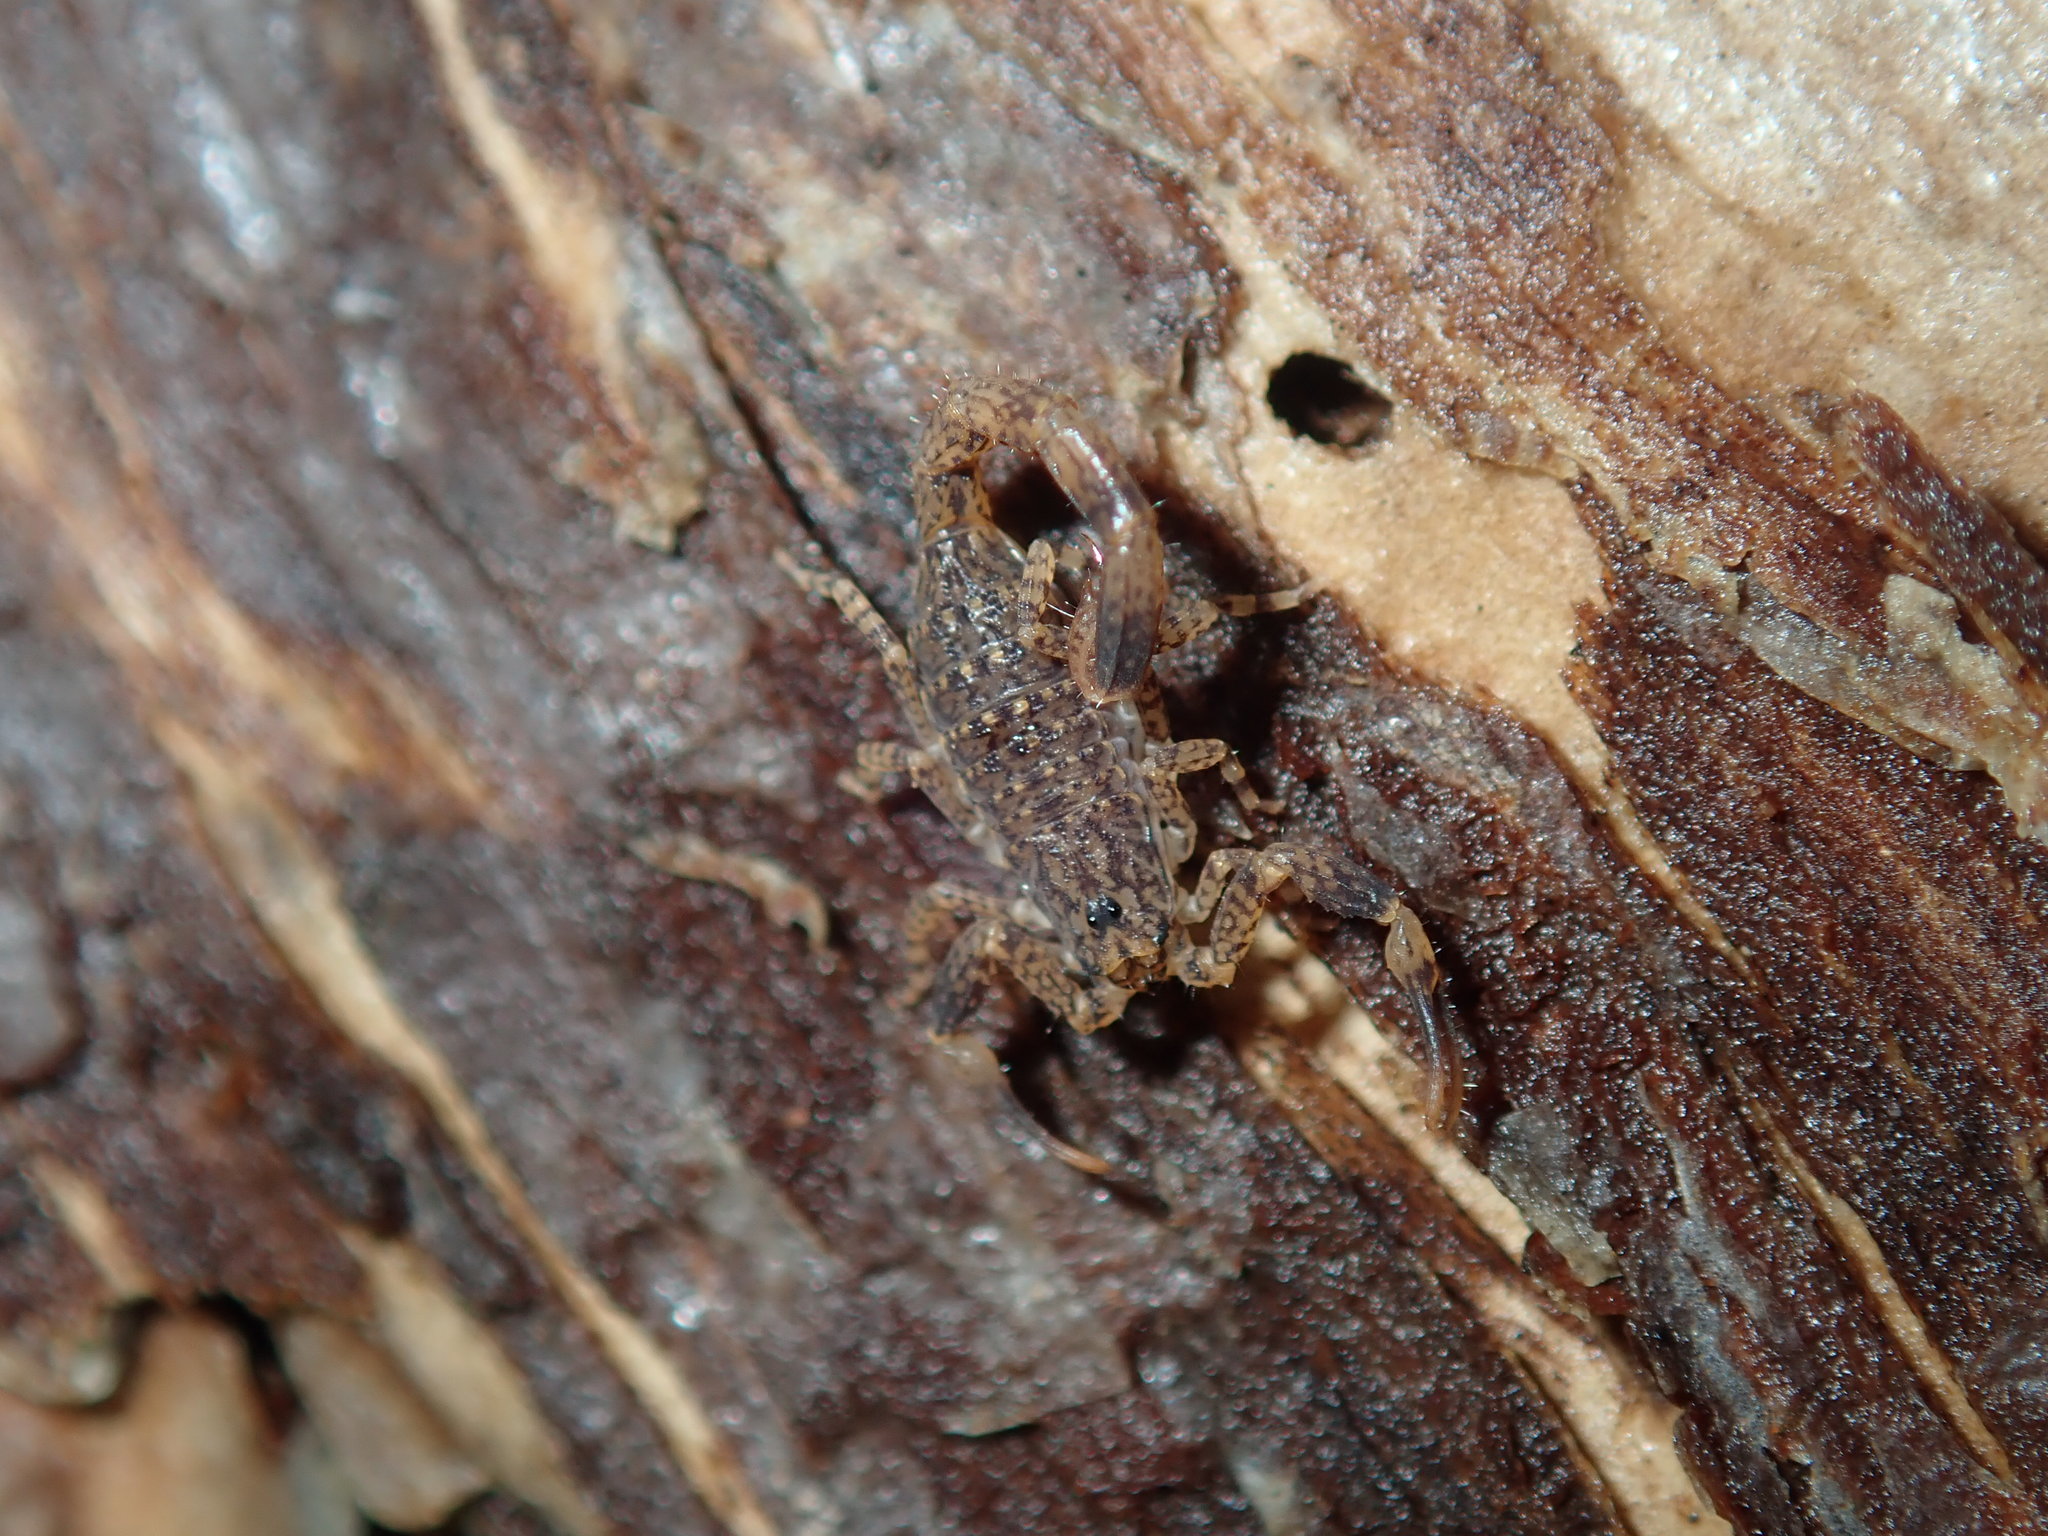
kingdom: Animalia
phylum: Arthropoda
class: Arachnida
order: Scorpiones
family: Buthidae
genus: Lychas
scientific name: Lychas marmoreus
